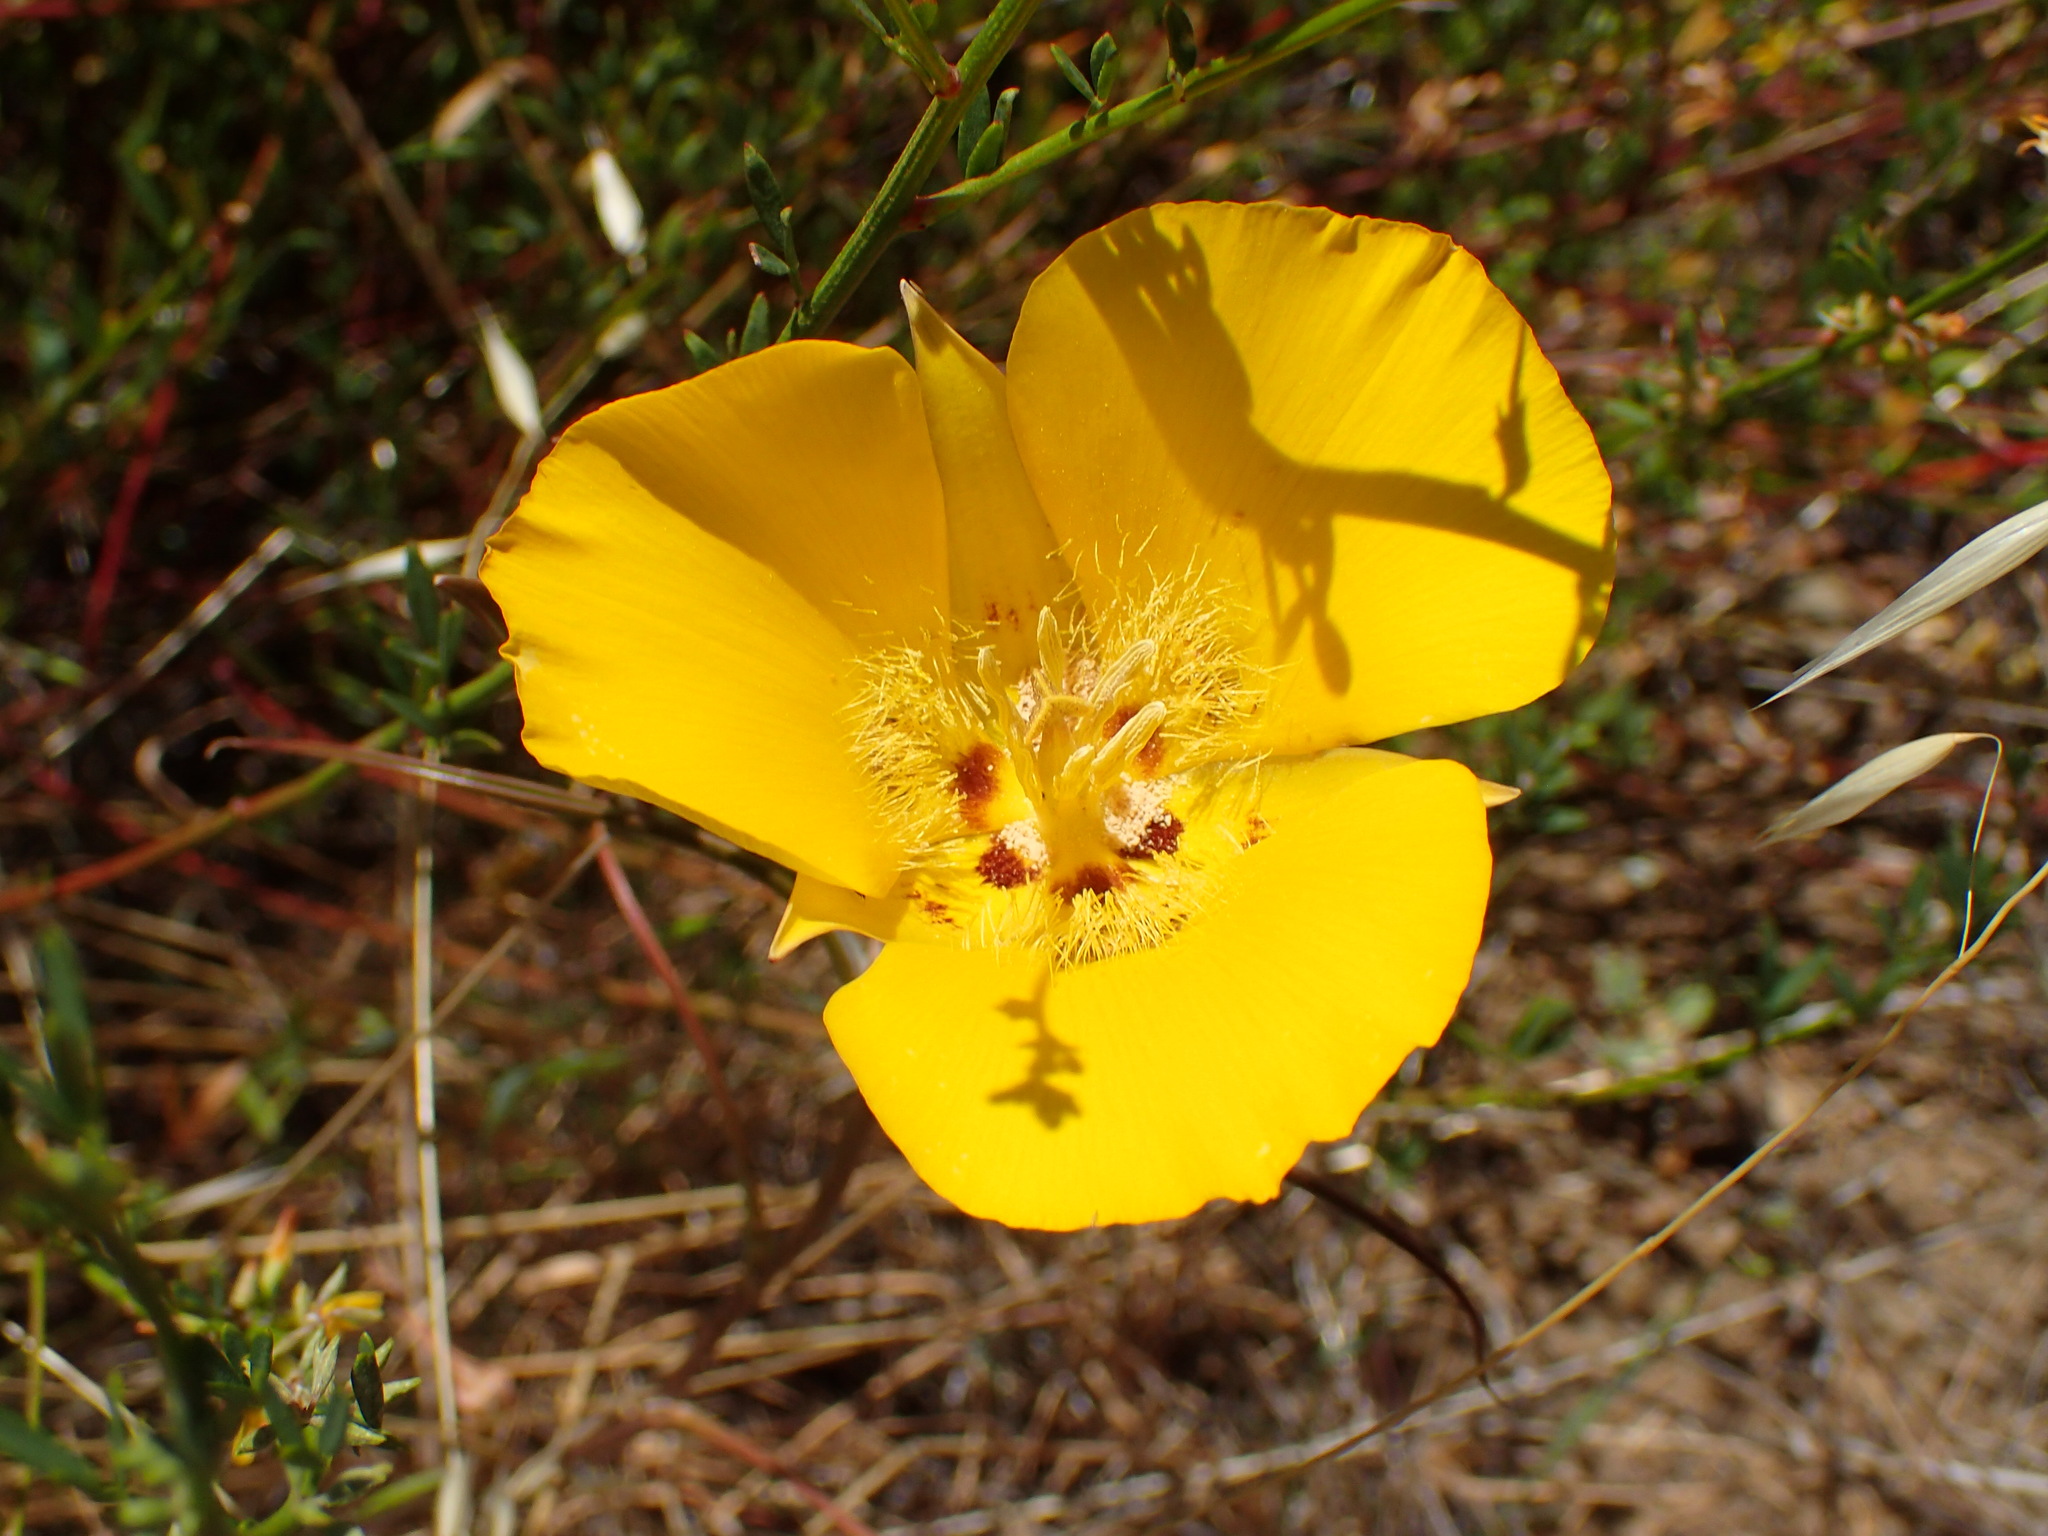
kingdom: Plantae
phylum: Tracheophyta
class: Liliopsida
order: Liliales
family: Liliaceae
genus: Calochortus
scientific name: Calochortus clavatus
